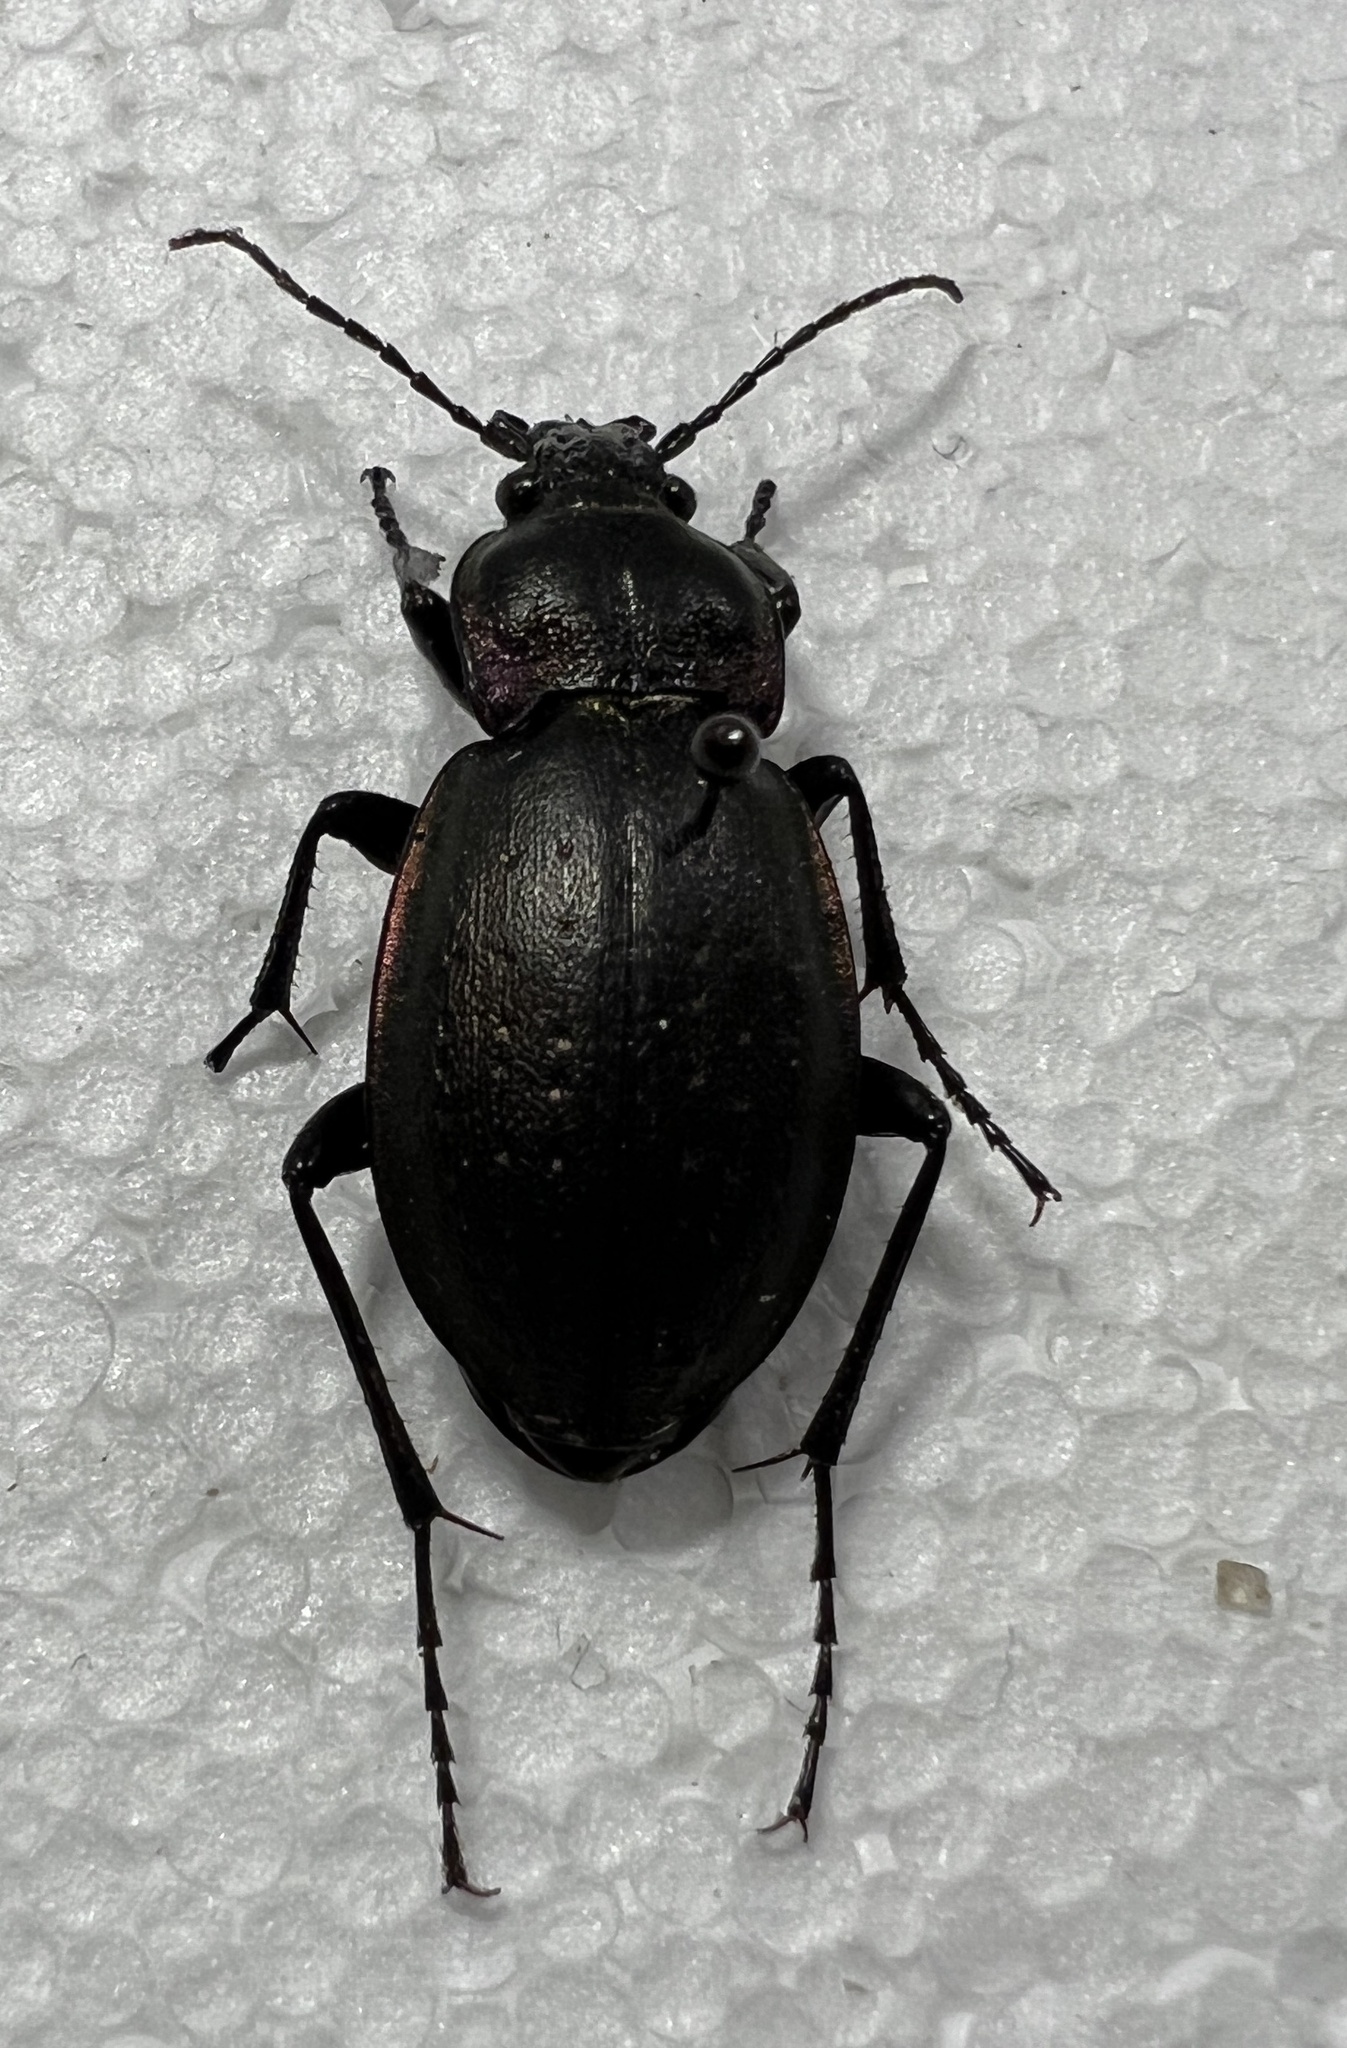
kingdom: Animalia
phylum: Arthropoda
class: Insecta
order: Coleoptera
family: Carabidae
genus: Carabus
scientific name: Carabus nemoralis
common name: European ground beetle
